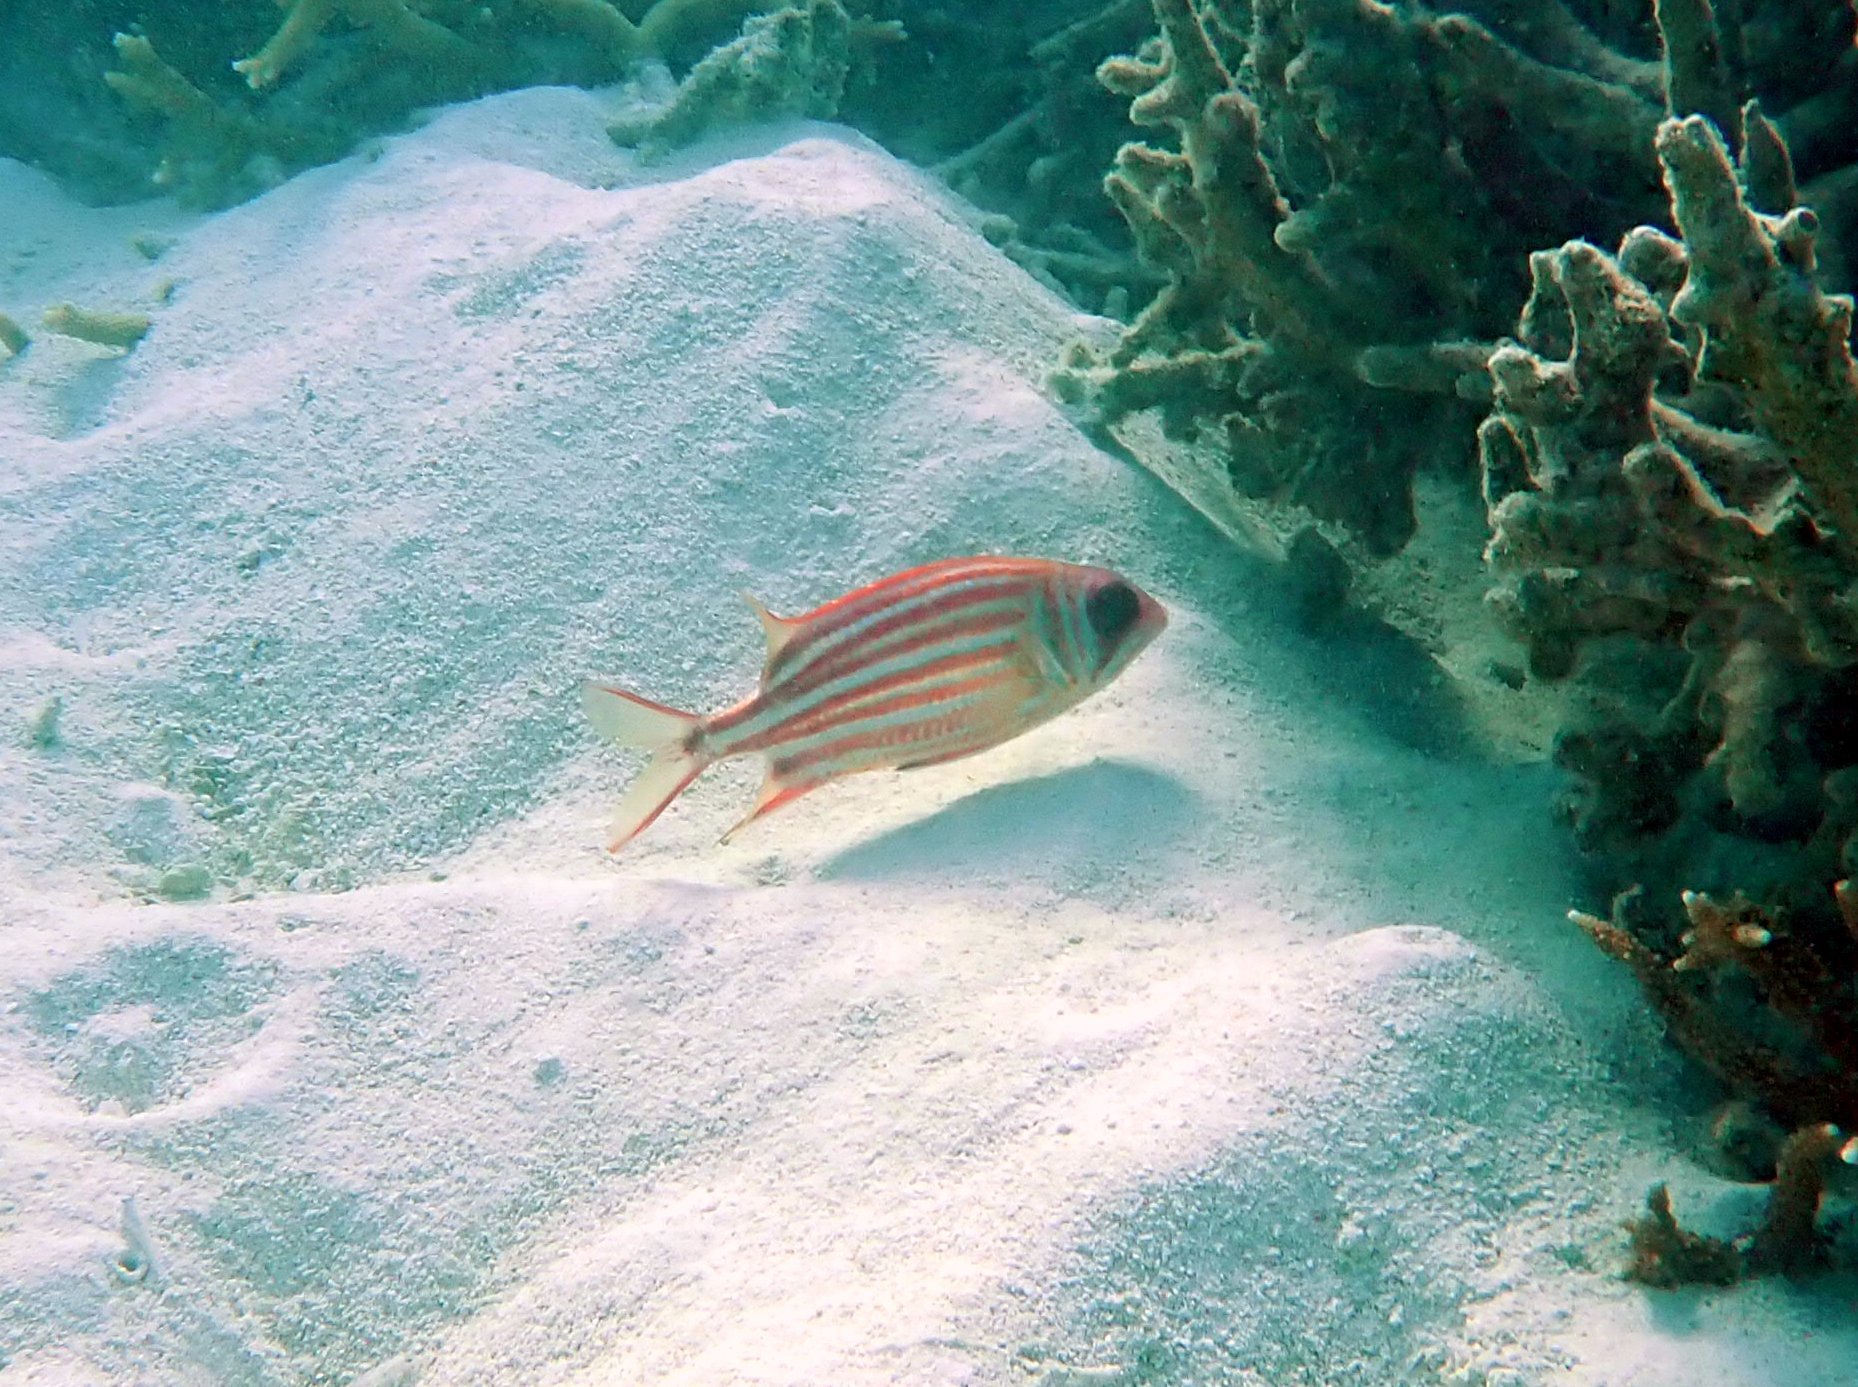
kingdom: Animalia
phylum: Chordata
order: Beryciformes
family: Holocentridae
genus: Sargocentron
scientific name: Sargocentron rubrum
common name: Redcoat
